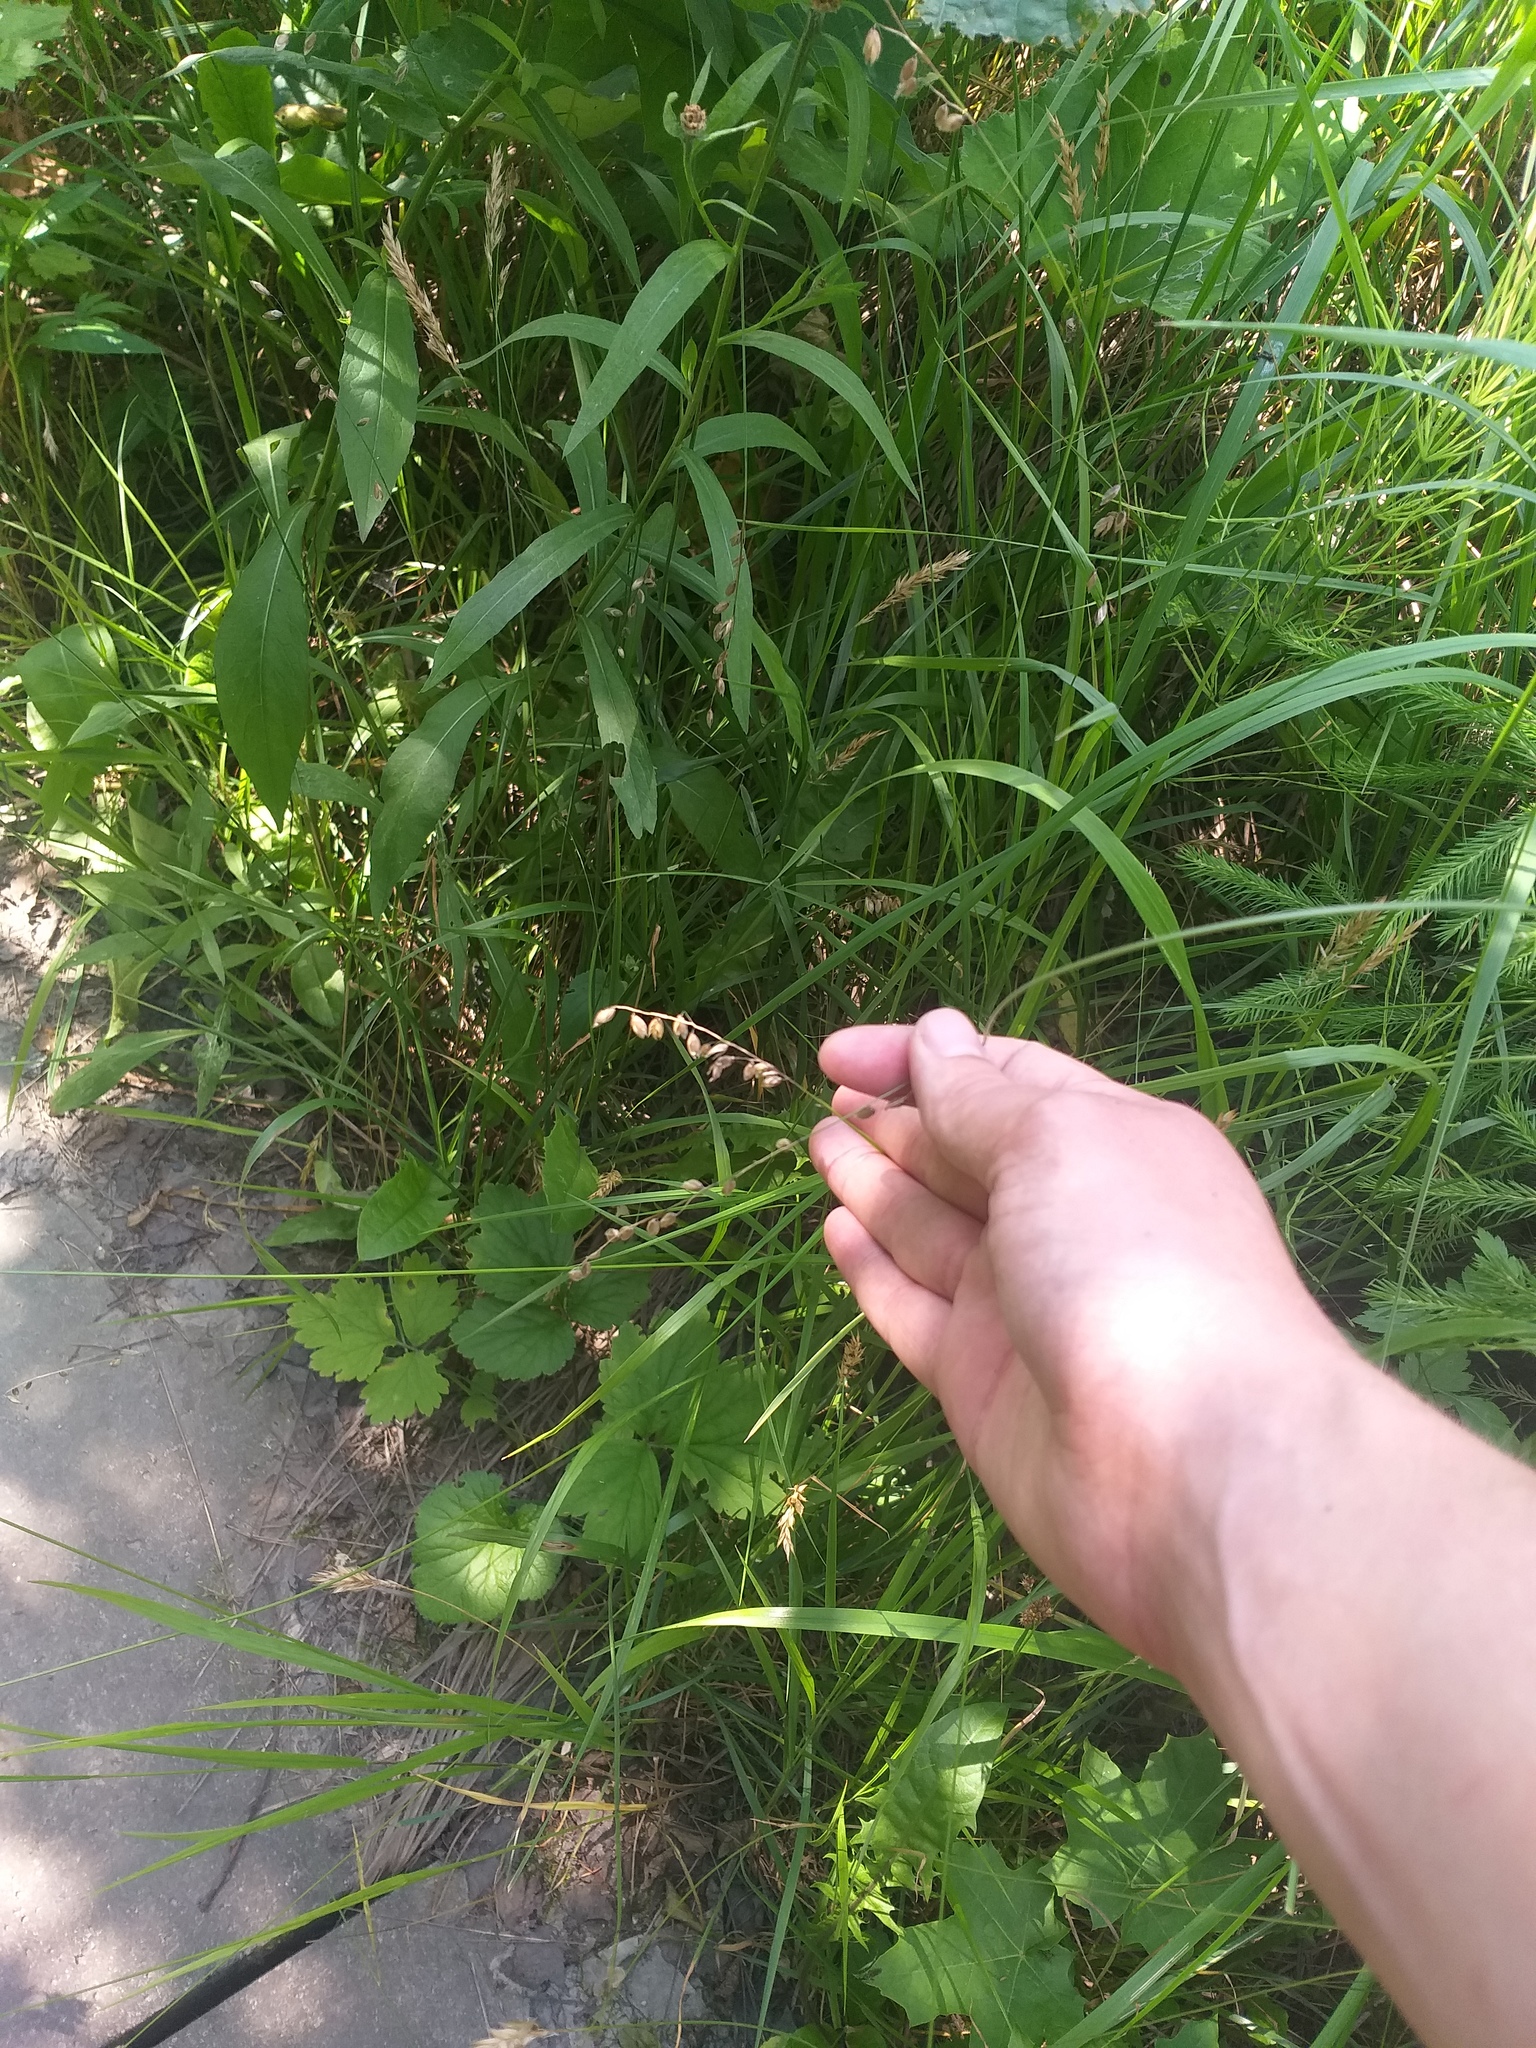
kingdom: Plantae
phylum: Tracheophyta
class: Liliopsida
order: Poales
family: Poaceae
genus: Melica
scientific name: Melica nutans
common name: Mountain melick
